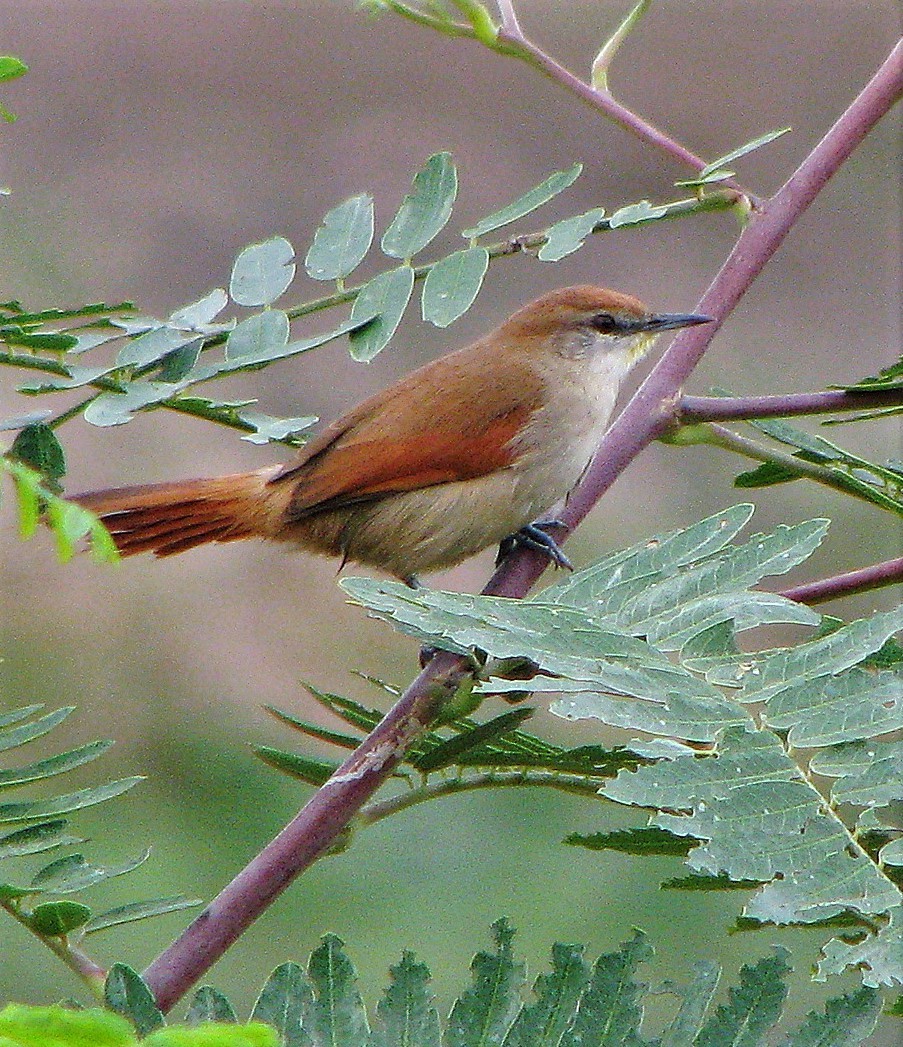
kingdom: Animalia
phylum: Chordata
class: Aves
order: Passeriformes
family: Furnariidae
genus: Certhiaxis
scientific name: Certhiaxis cinnamomeus
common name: Yellow-chinned spinetail
